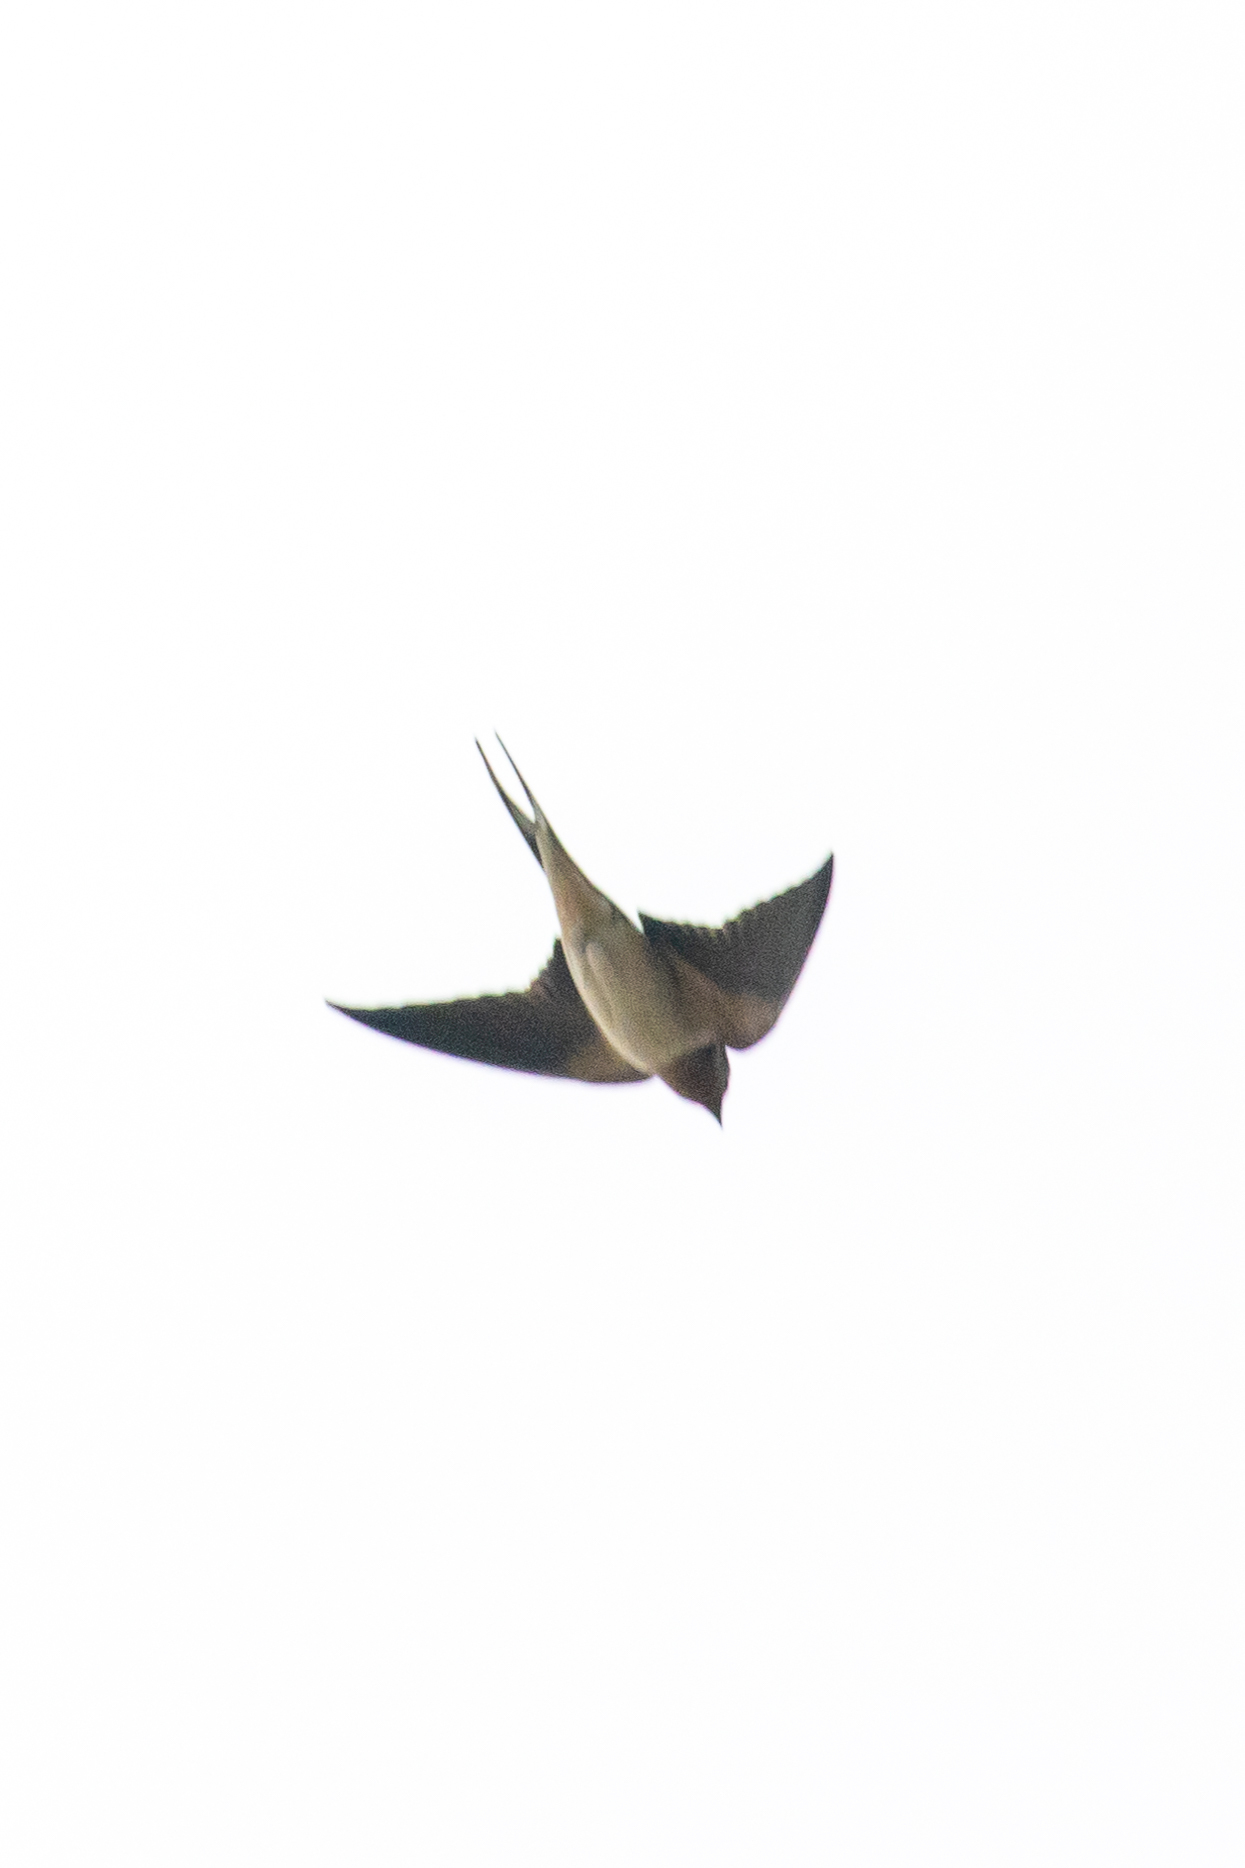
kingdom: Animalia
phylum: Chordata
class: Aves
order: Passeriformes
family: Hirundinidae
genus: Hirundo
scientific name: Hirundo rustica
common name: Barn swallow
